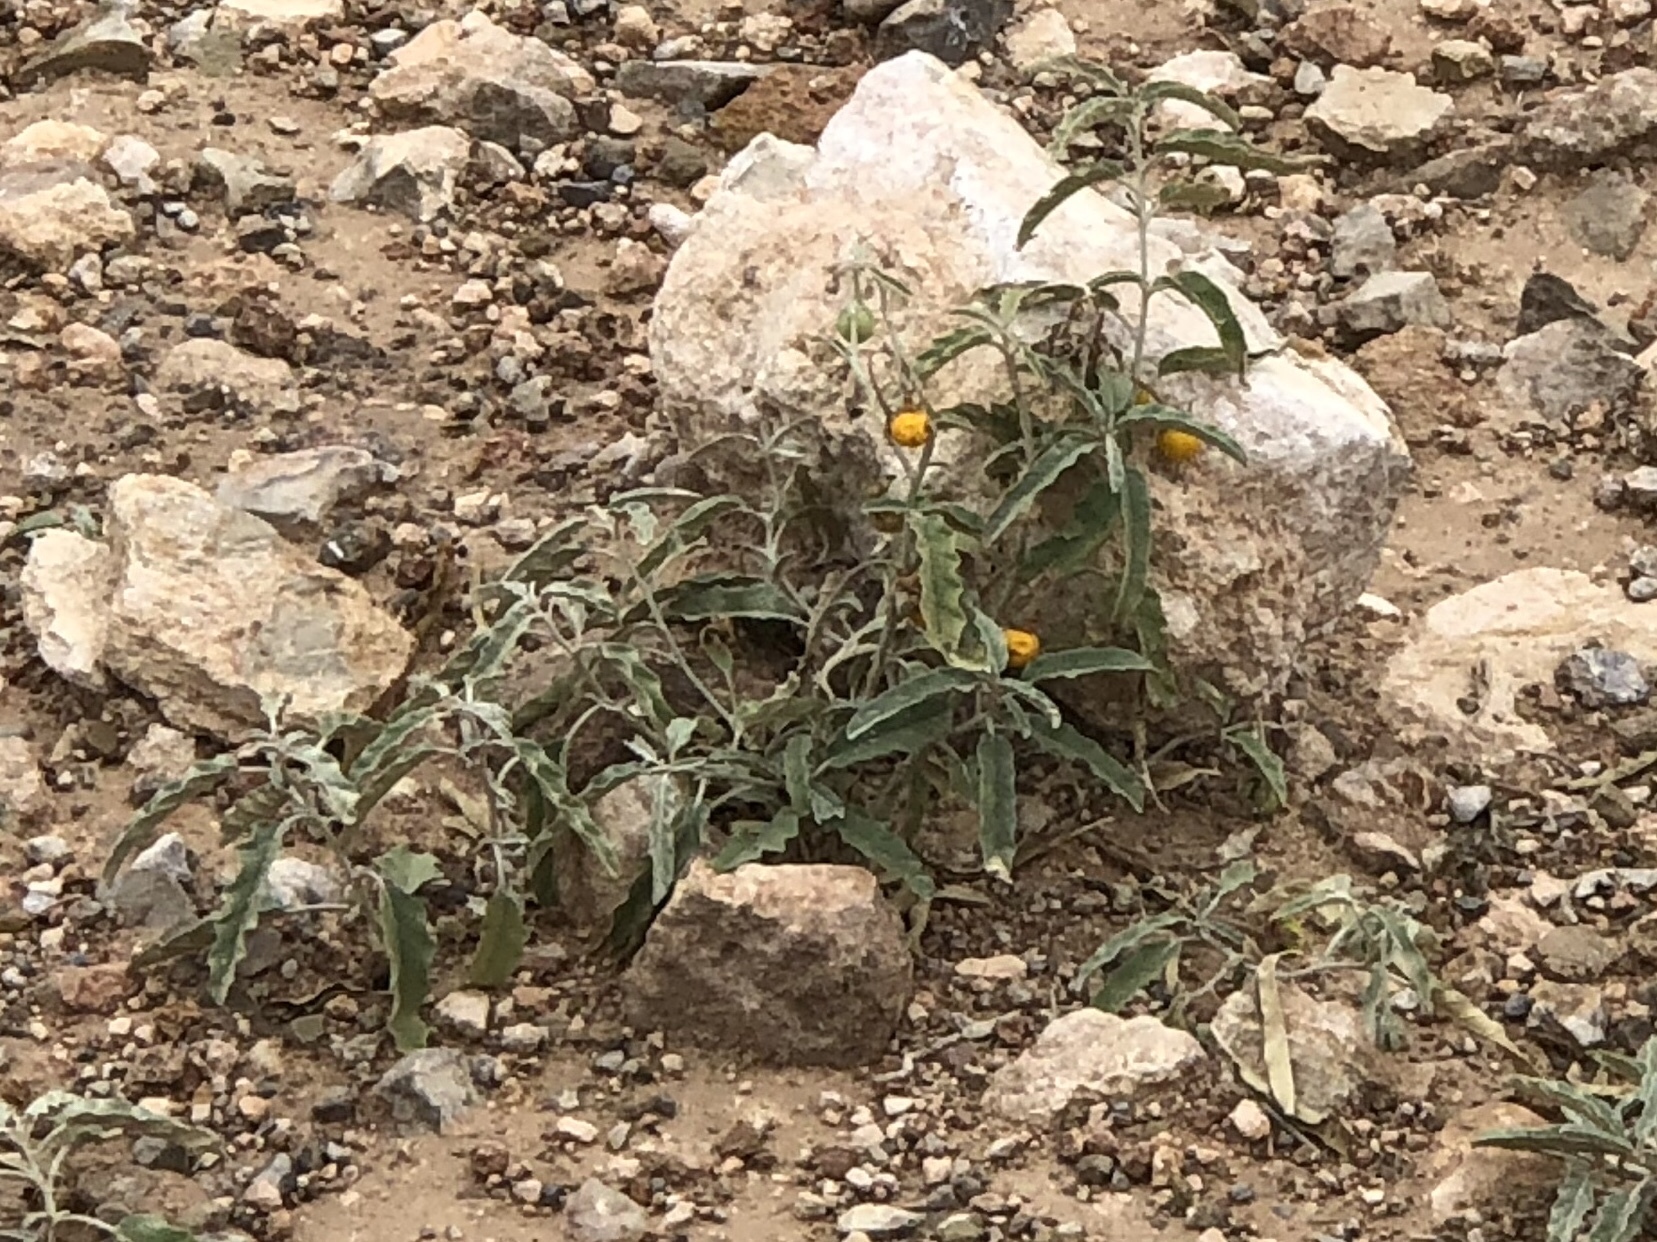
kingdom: Plantae
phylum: Tracheophyta
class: Magnoliopsida
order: Solanales
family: Solanaceae
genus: Solanum
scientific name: Solanum elaeagnifolium
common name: Silverleaf nightshade
